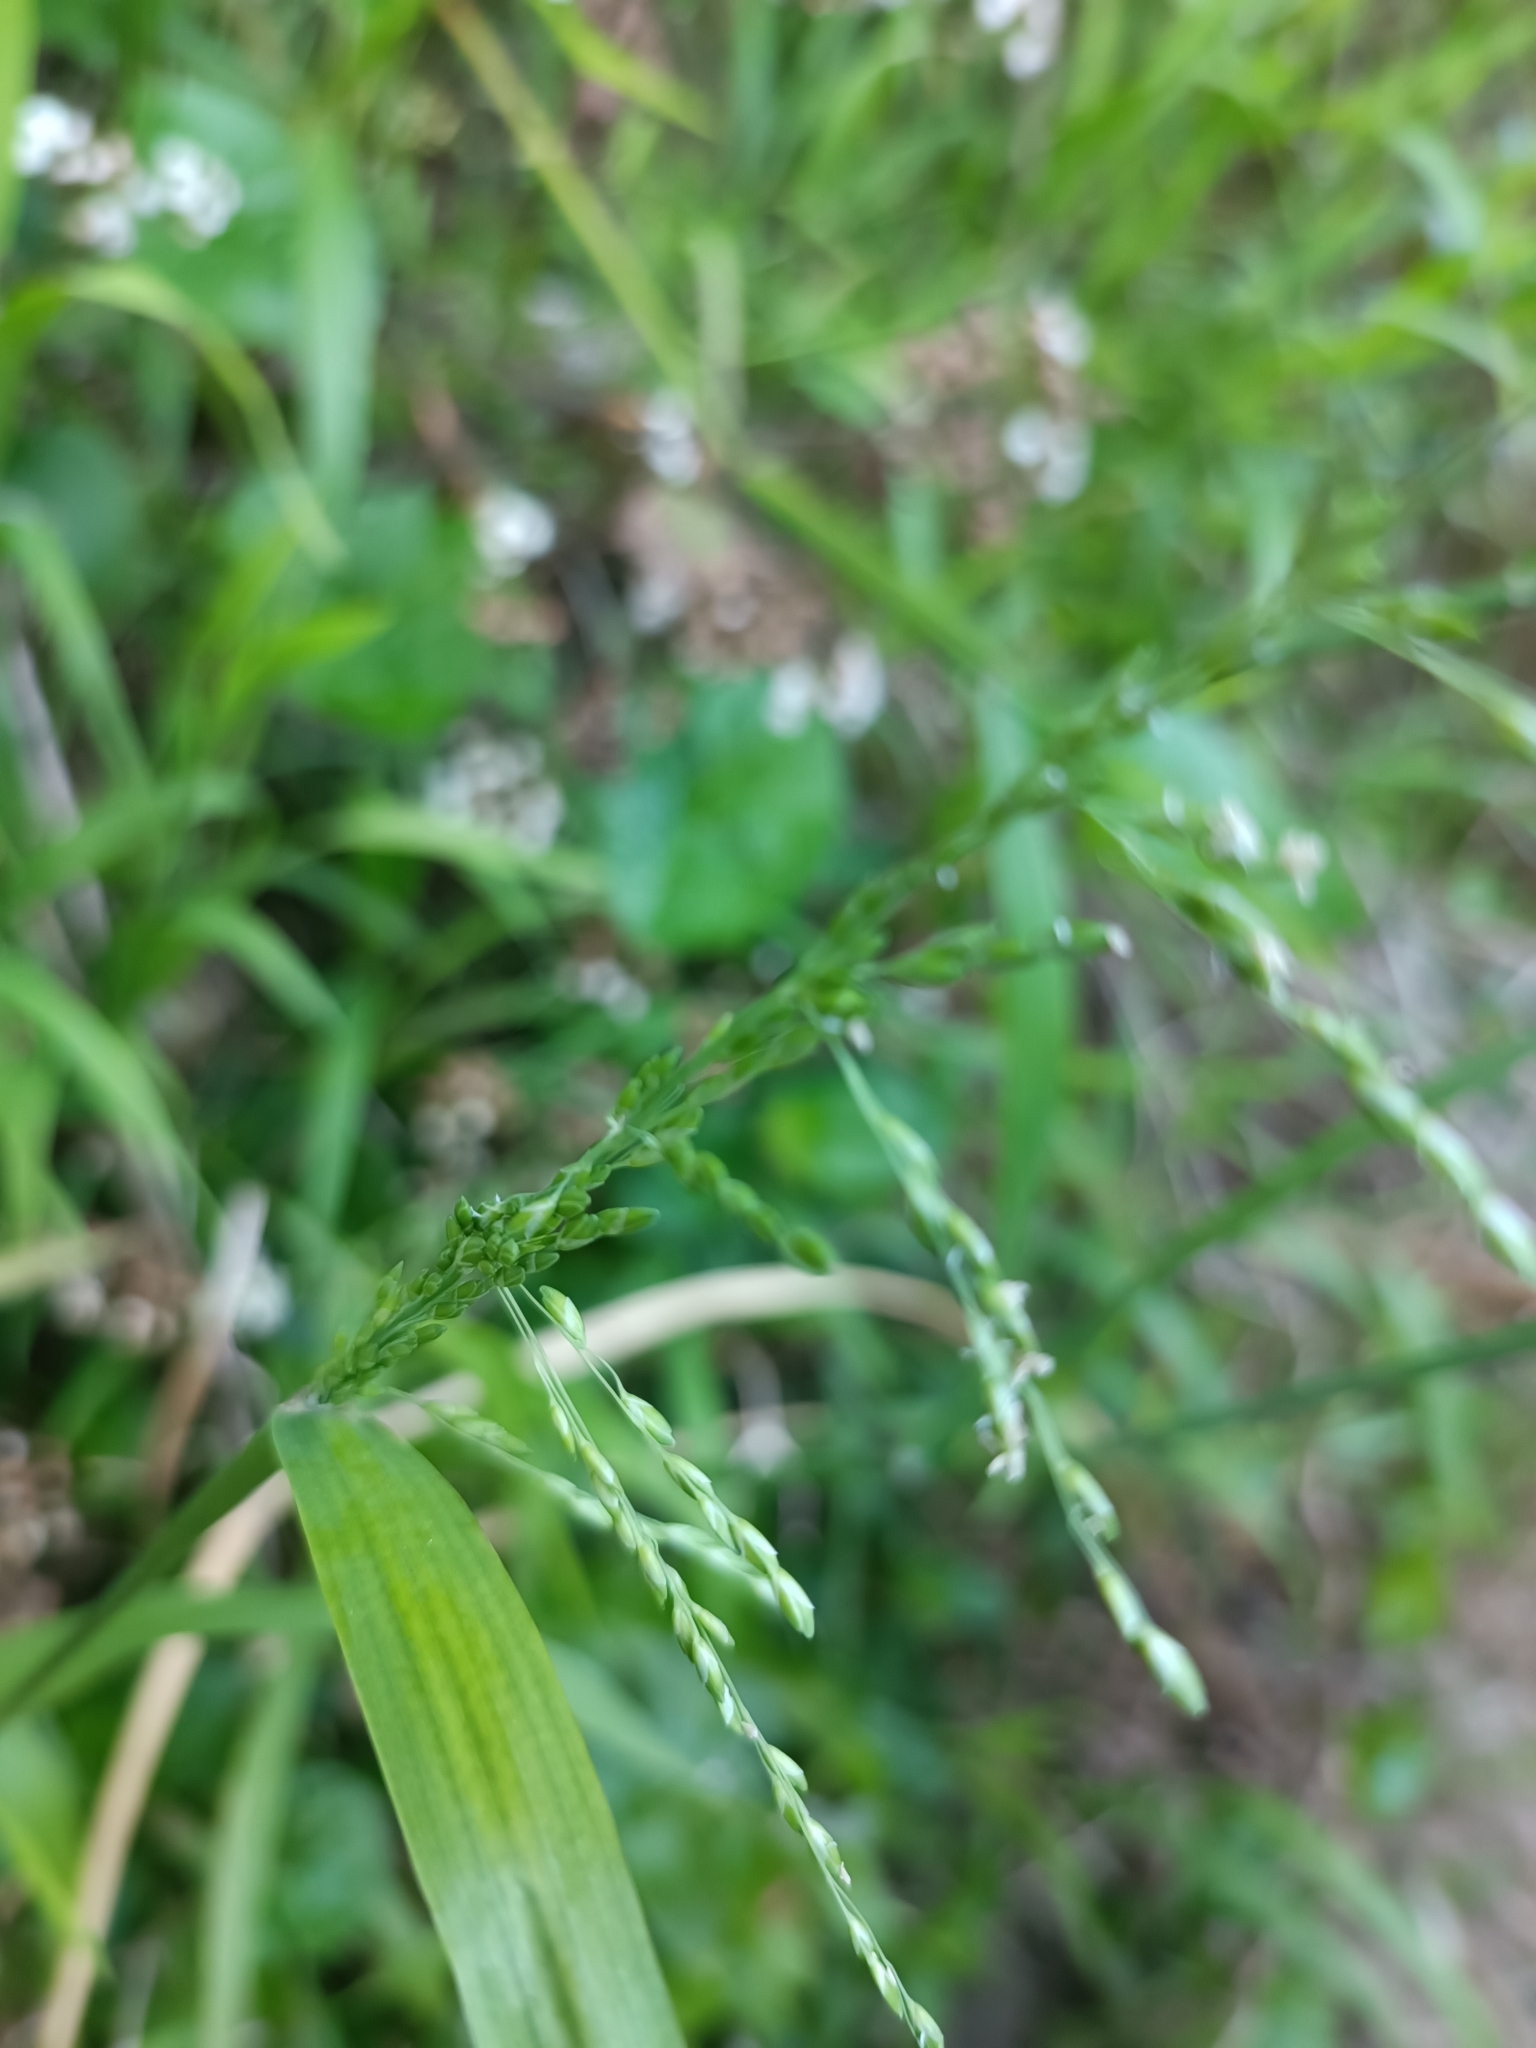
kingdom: Plantae
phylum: Tracheophyta
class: Liliopsida
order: Poales
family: Poaceae
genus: Ehrharta
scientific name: Ehrharta erecta
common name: Panic veldtgrass
